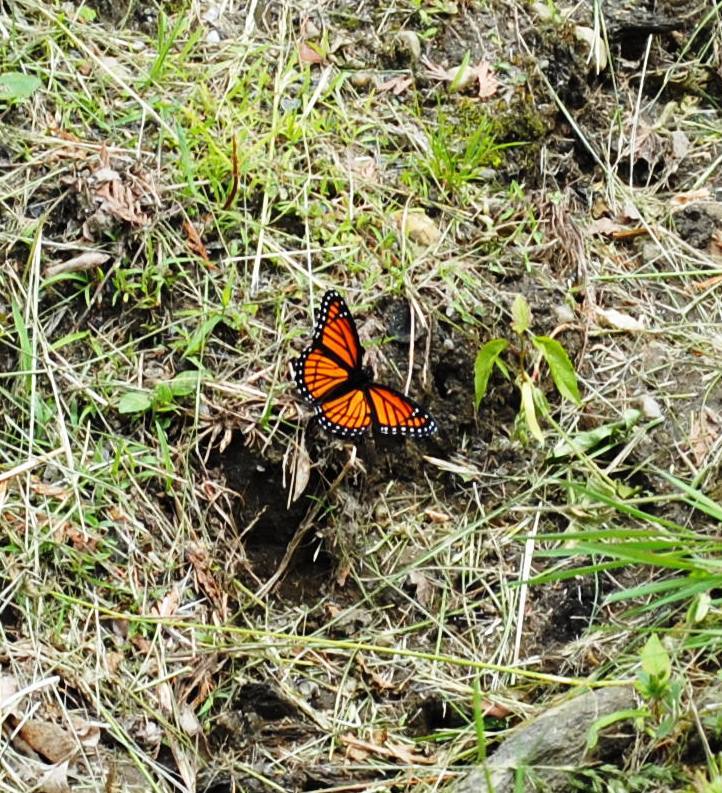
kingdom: Animalia
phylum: Arthropoda
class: Insecta
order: Lepidoptera
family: Nymphalidae
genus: Limenitis
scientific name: Limenitis archippus
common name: Viceroy
